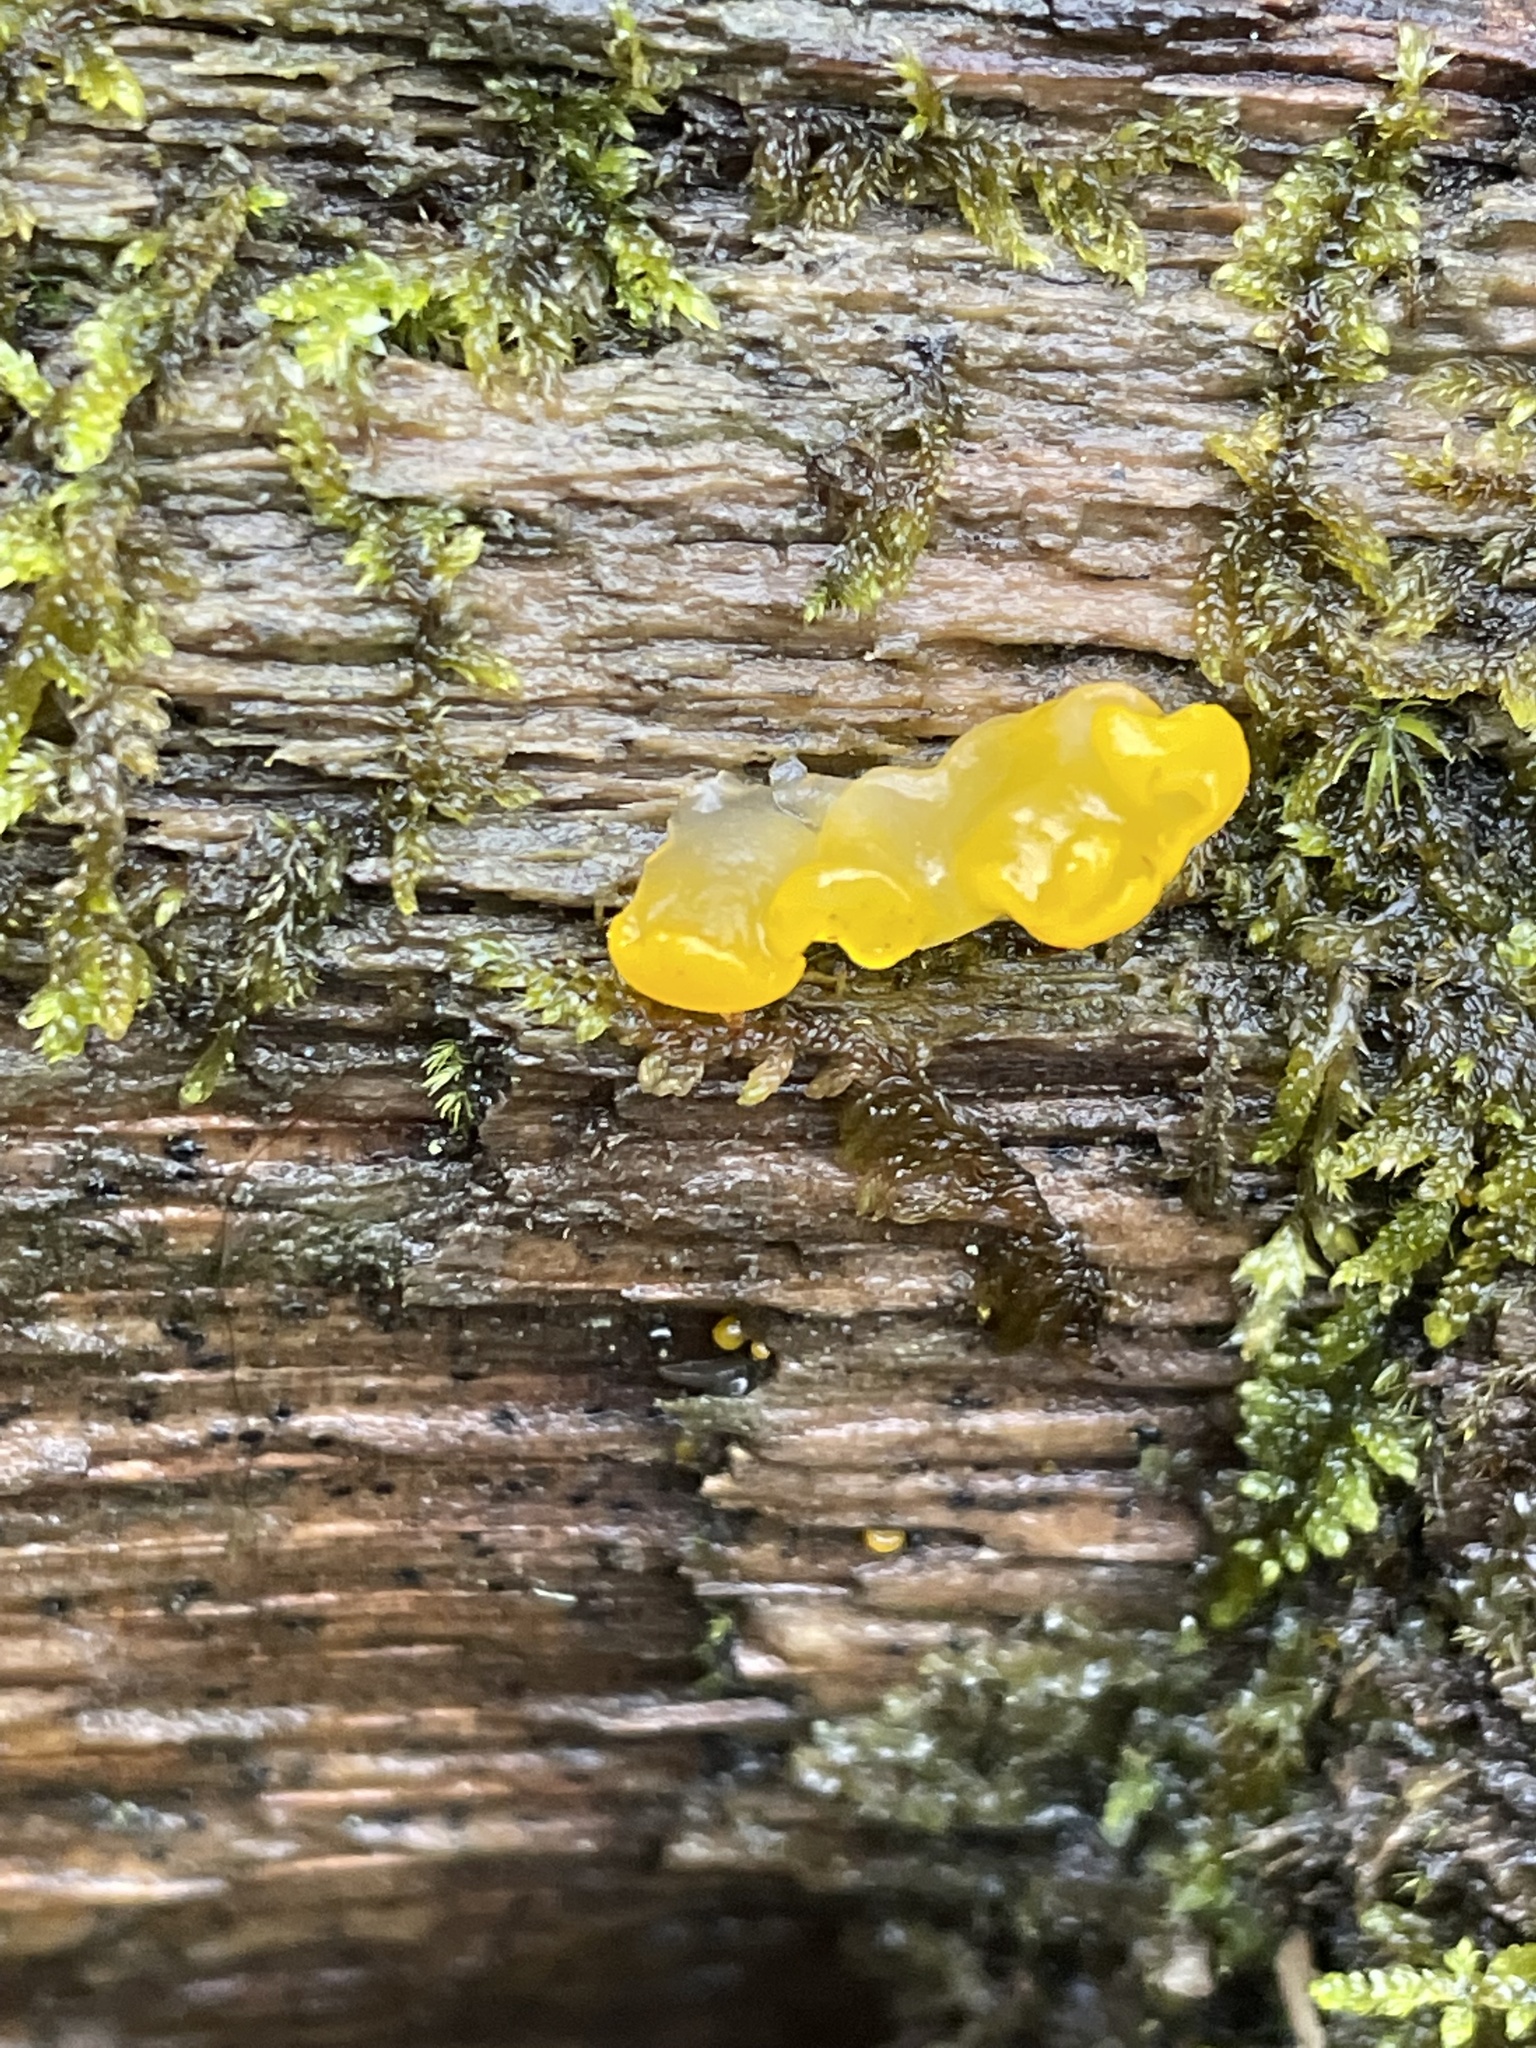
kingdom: Fungi
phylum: Basidiomycota
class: Dacrymycetes
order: Dacrymycetales
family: Dacrymycetaceae
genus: Dacrymyces
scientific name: Dacrymyces chrysospermus
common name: Orange jelly spot
